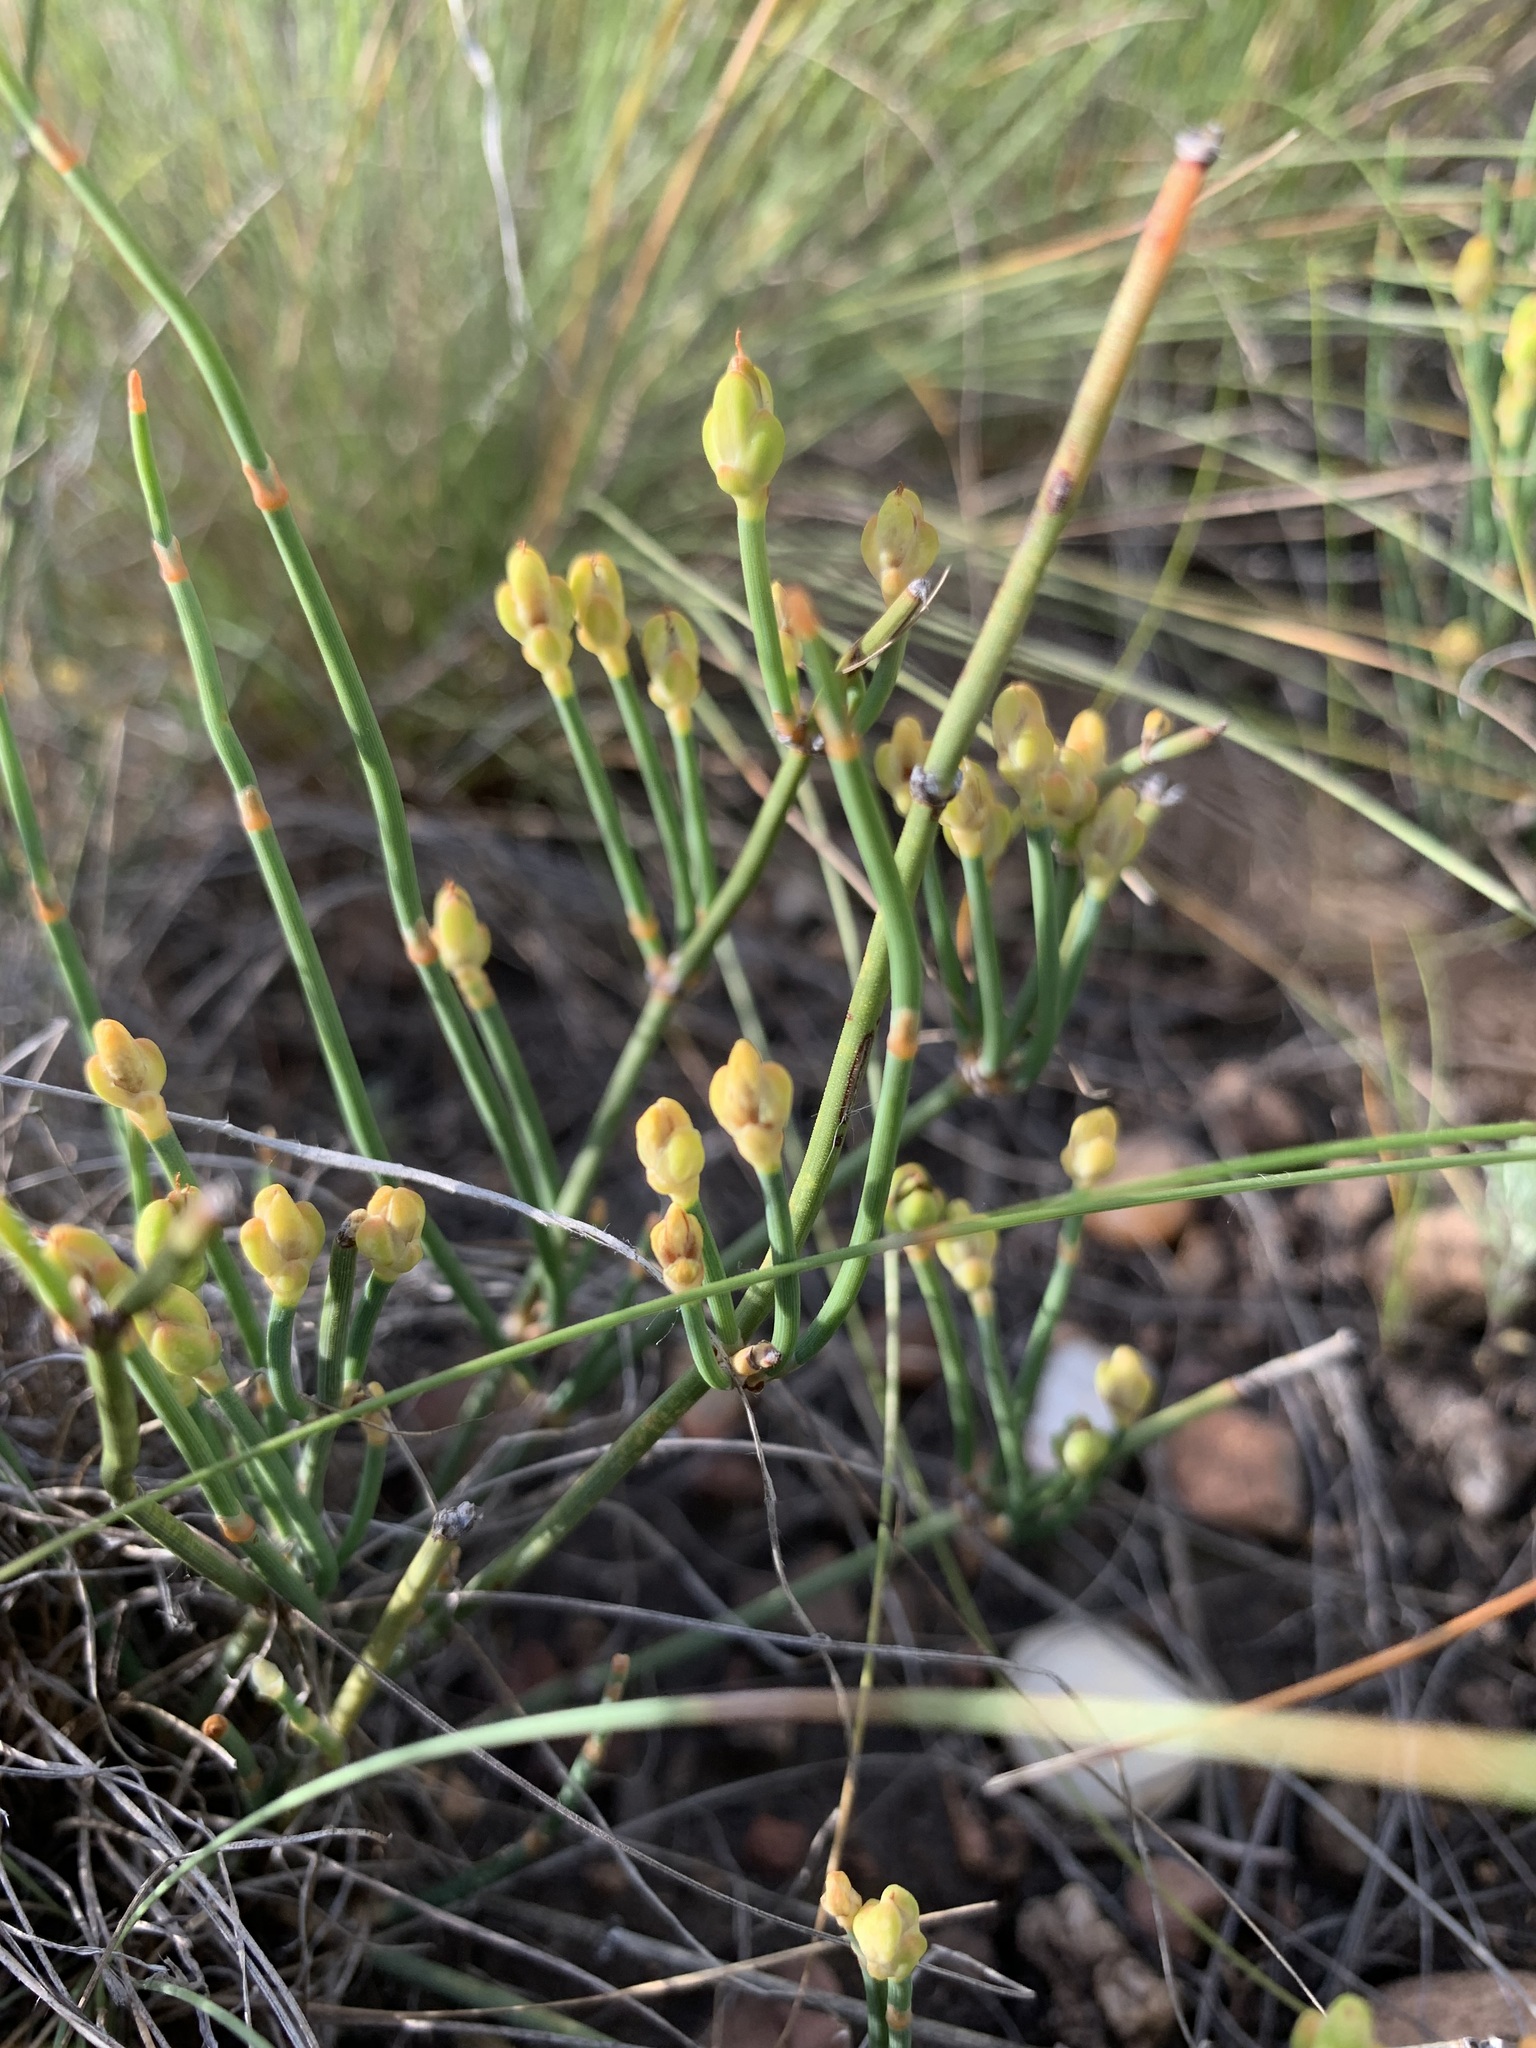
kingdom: Plantae
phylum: Tracheophyta
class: Gnetopsida
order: Ephedrales
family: Ephedraceae
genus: Ephedra
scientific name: Ephedra distachya
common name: Sea grape
